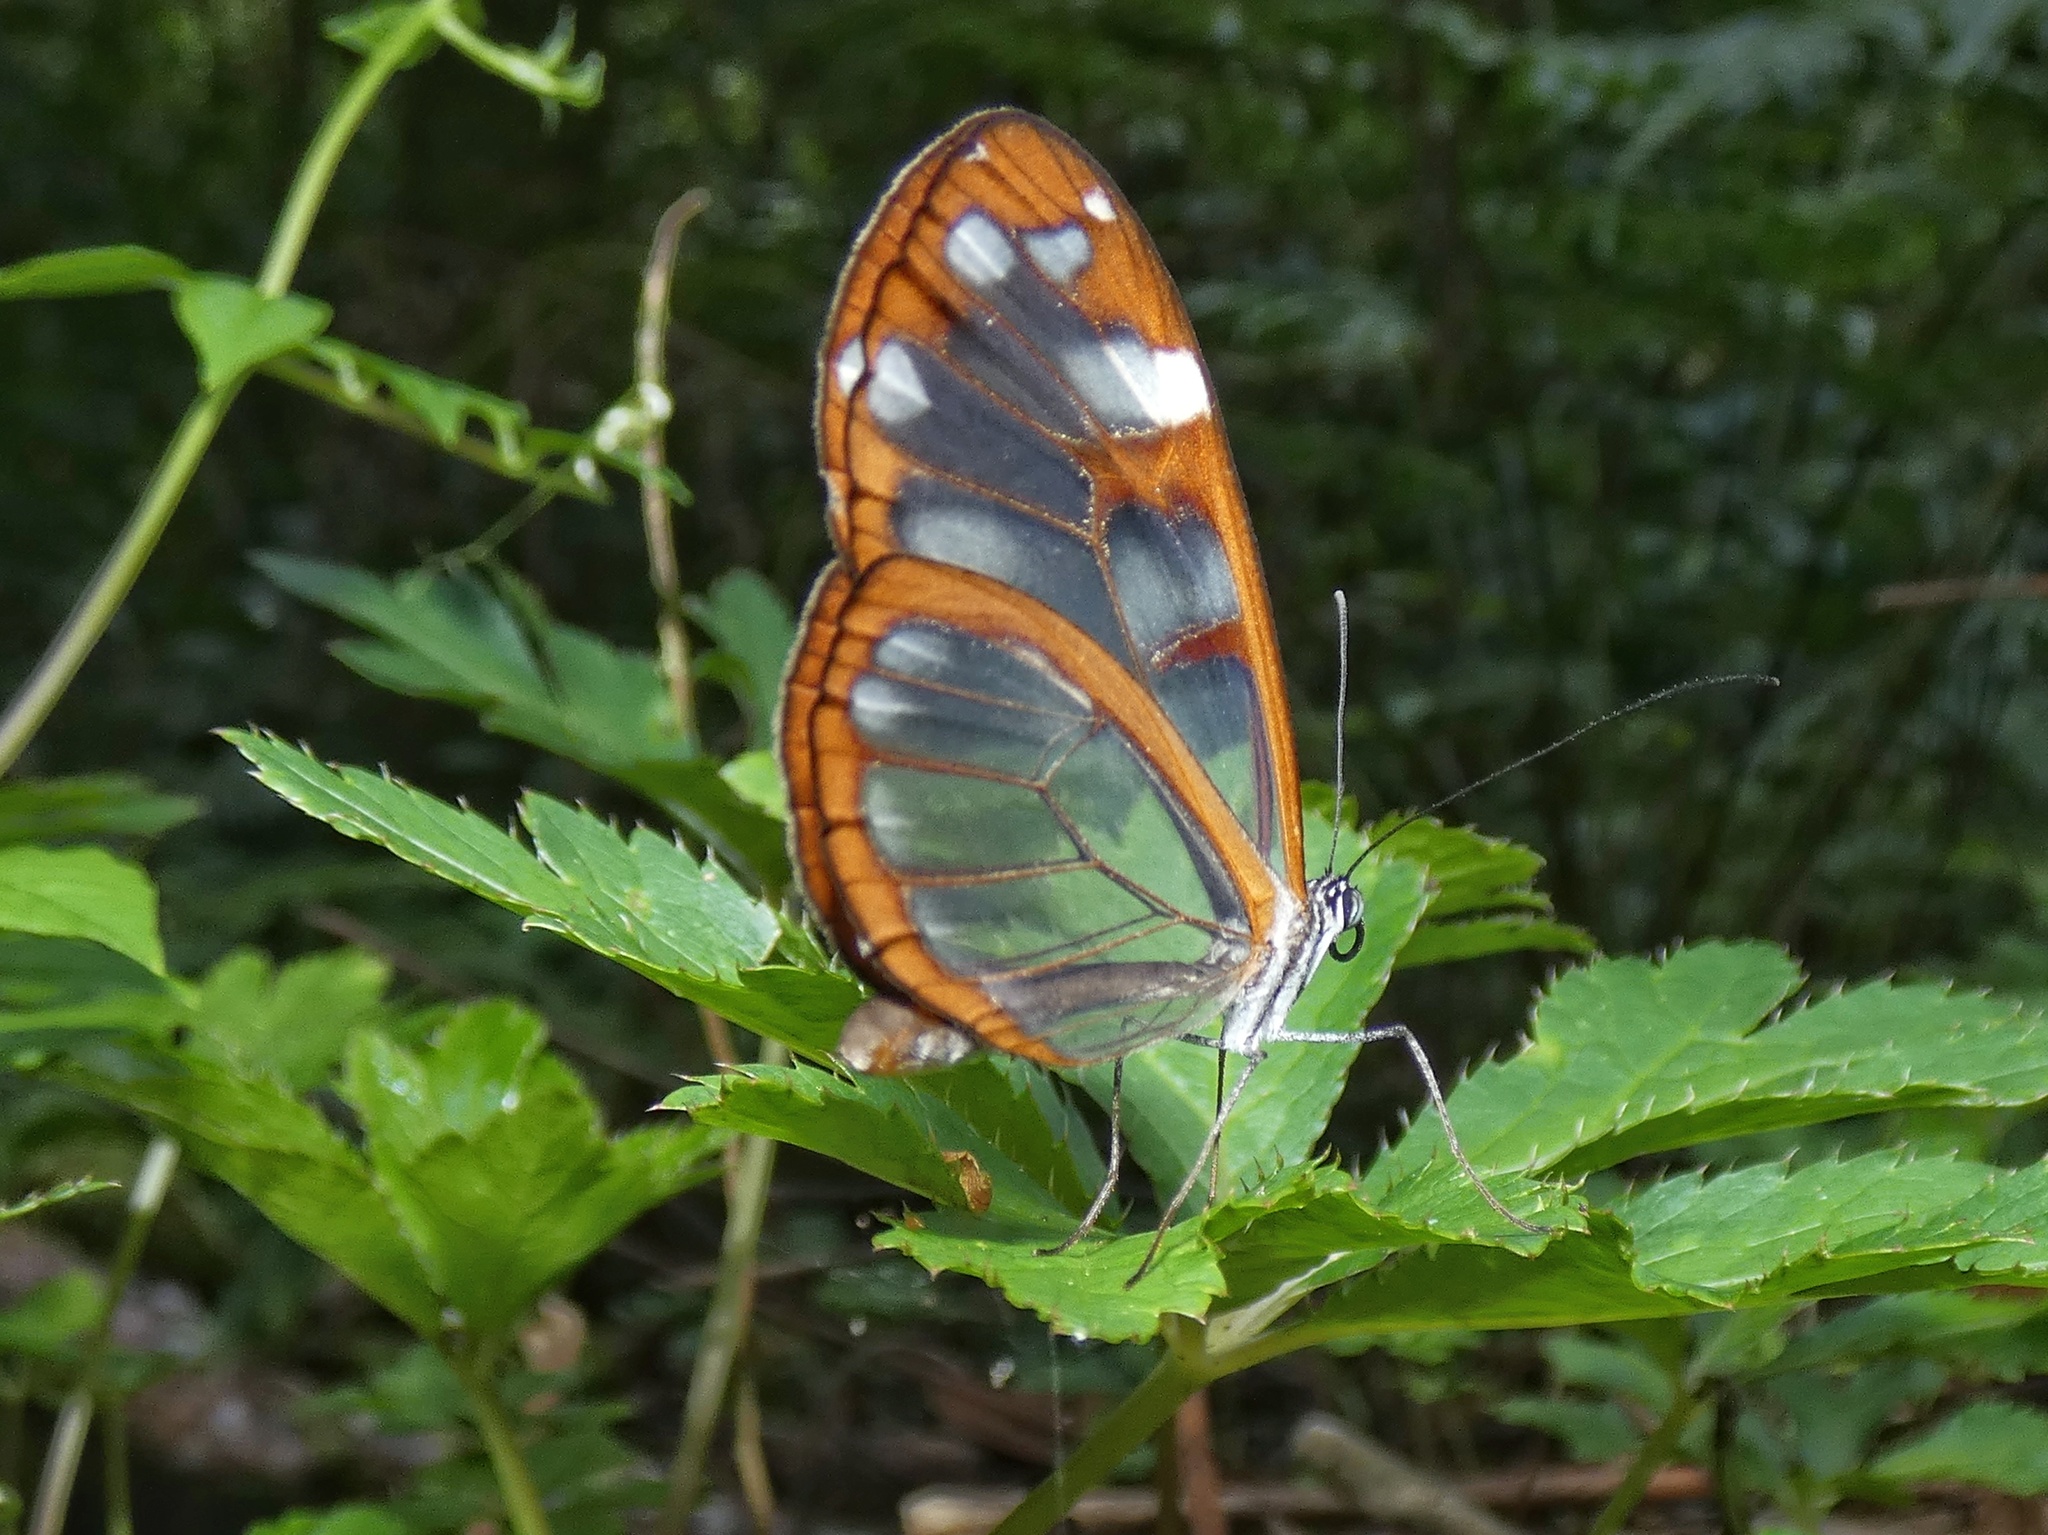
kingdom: Animalia
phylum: Arthropoda
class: Insecta
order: Lepidoptera
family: Nymphalidae
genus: Oleria
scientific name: Oleria vicina
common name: Vicina clearwing
